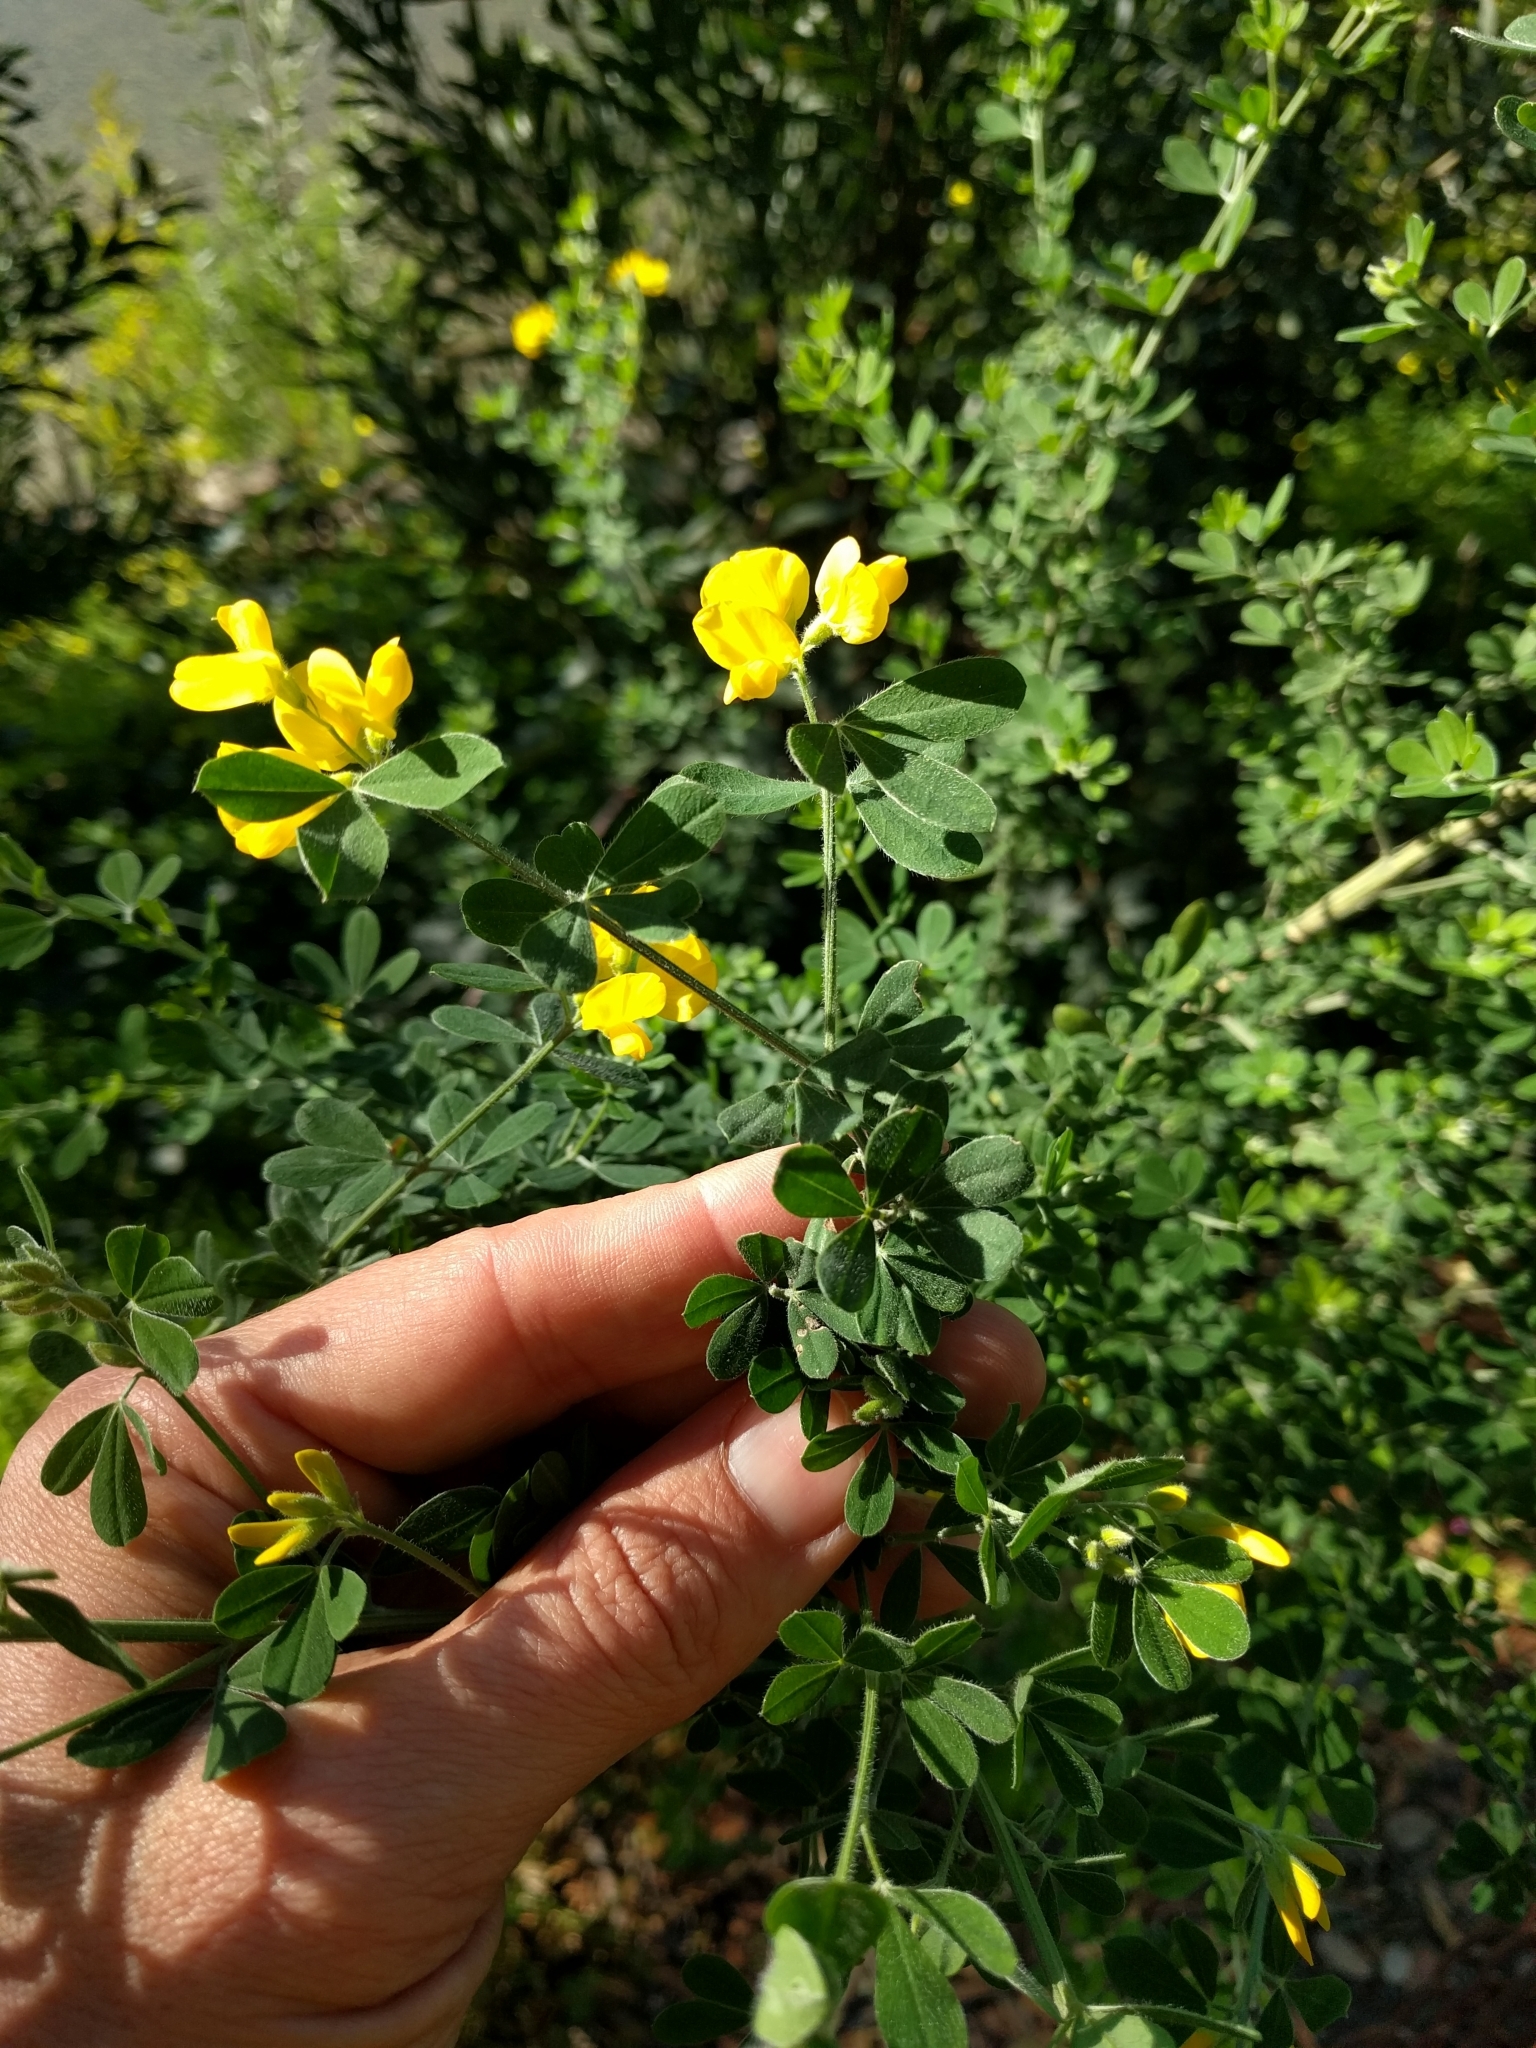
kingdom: Plantae
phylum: Tracheophyta
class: Magnoliopsida
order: Fabales
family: Fabaceae
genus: Genista
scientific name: Genista monspessulana
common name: Montpellier broom
